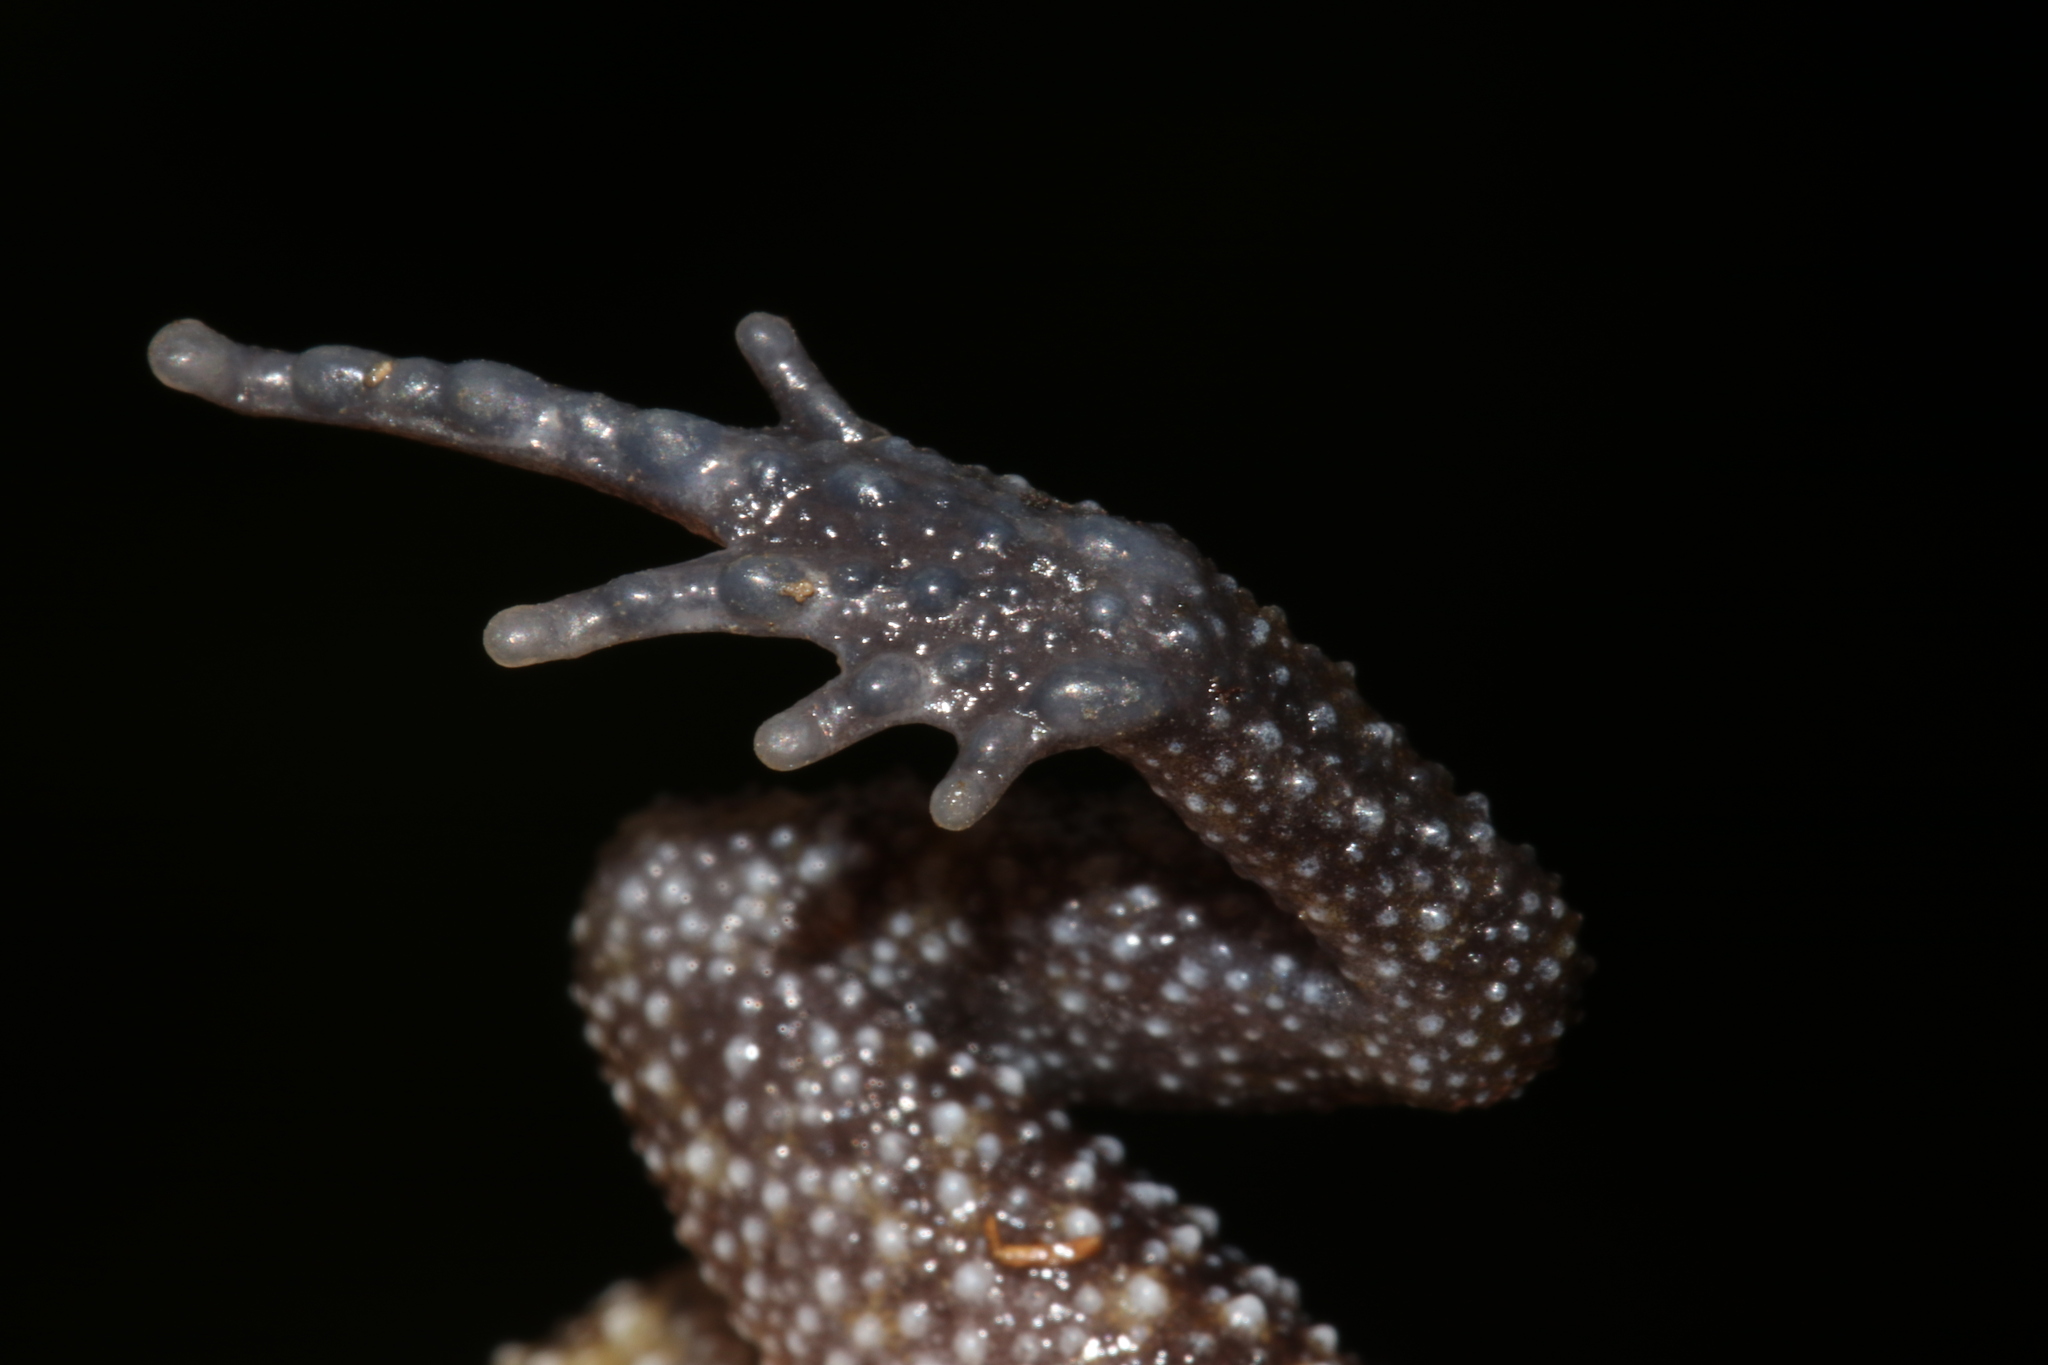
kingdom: Animalia
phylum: Chordata
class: Amphibia
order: Anura
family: Brevicipitidae
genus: Probreviceps
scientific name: Probreviceps rungwensis
